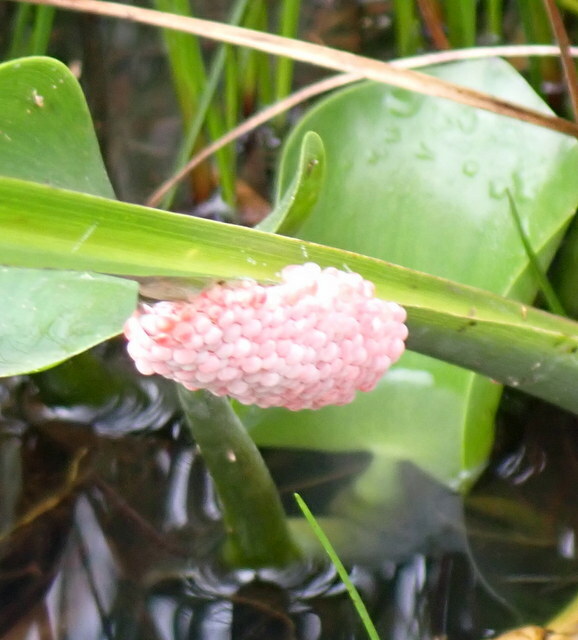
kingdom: Animalia
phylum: Mollusca
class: Gastropoda
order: Architaenioglossa
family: Ampullariidae
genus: Pomacea
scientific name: Pomacea maculata
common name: Giant applesnail
